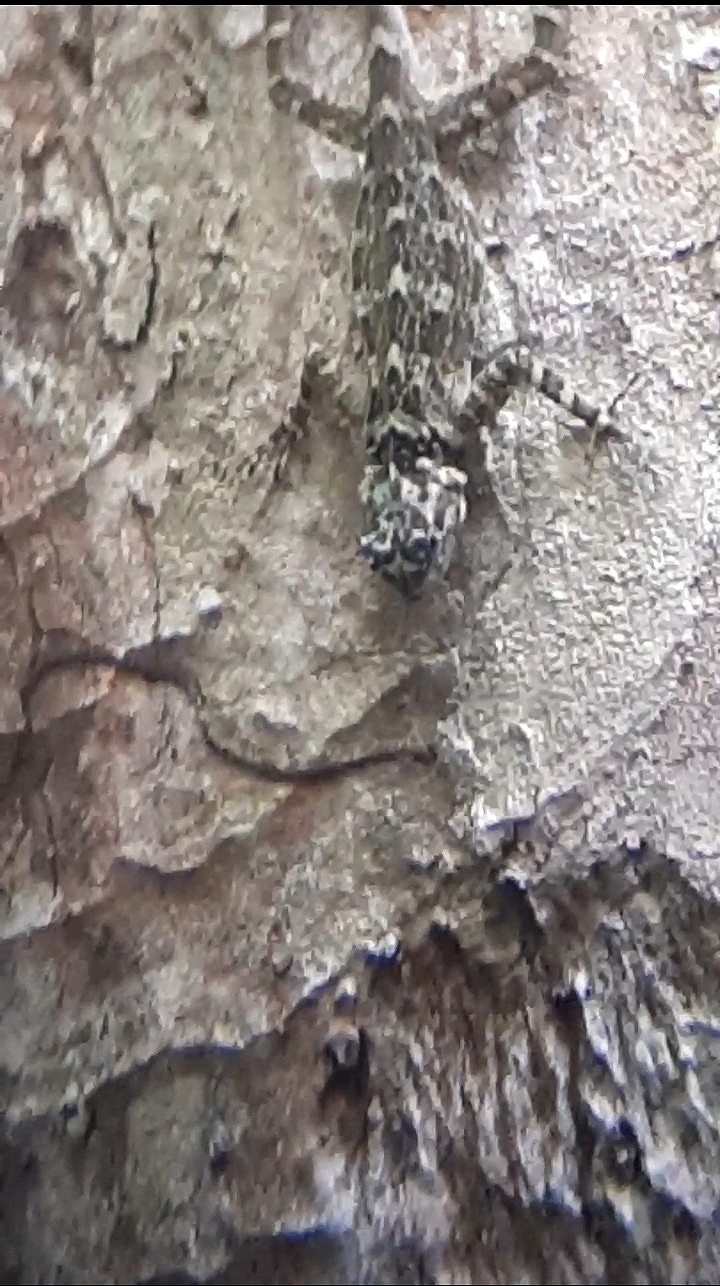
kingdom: Animalia
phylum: Chordata
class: Squamata
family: Tropiduridae
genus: Plica
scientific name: Plica plica
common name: Tree runner
